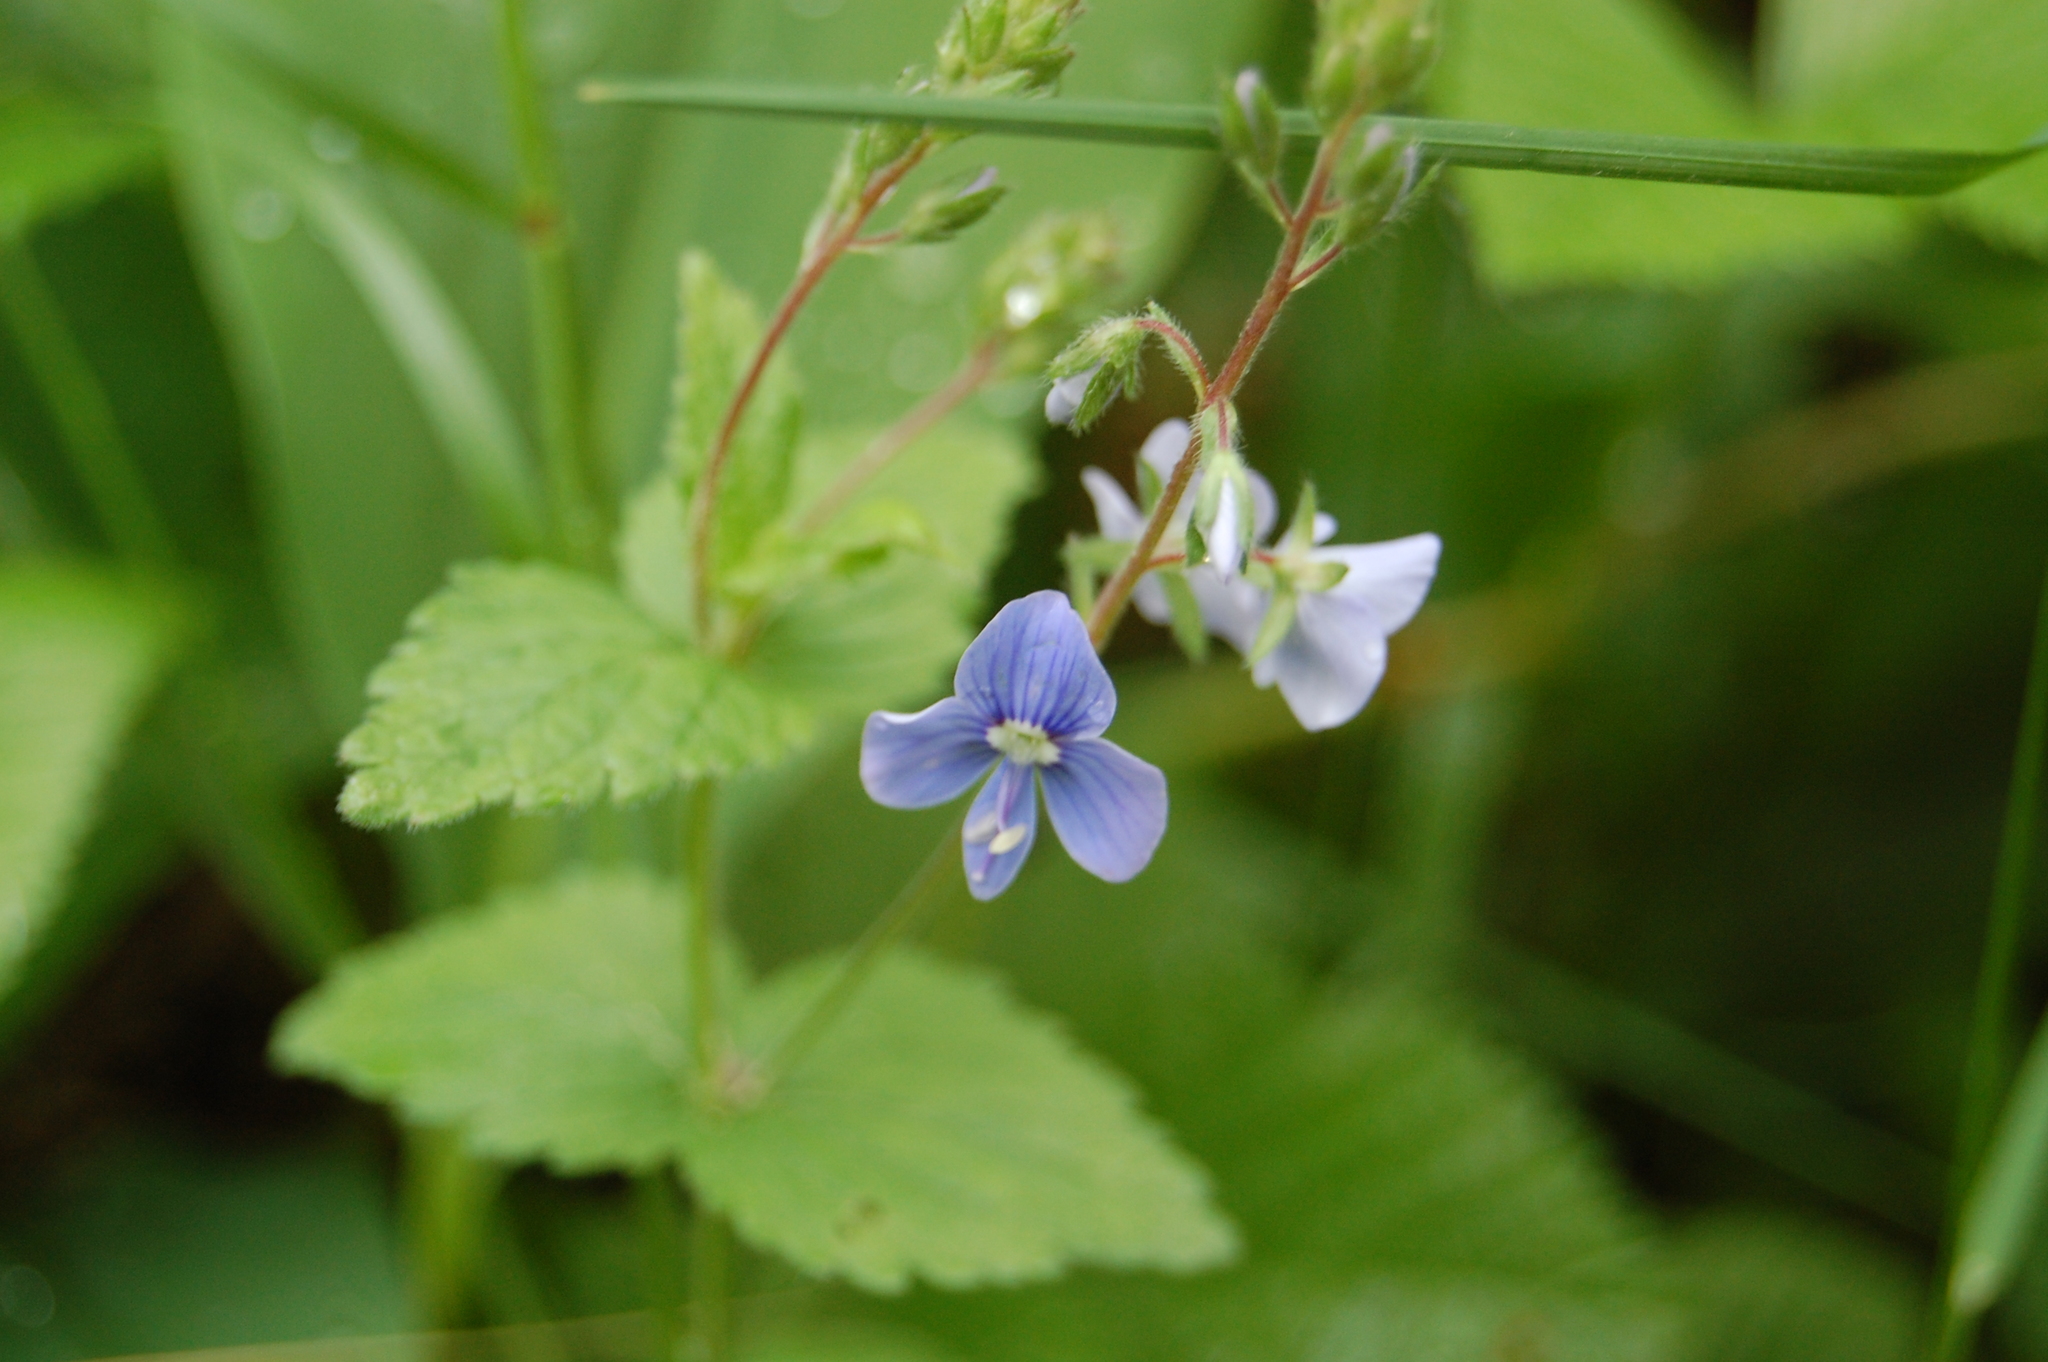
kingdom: Plantae
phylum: Tracheophyta
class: Magnoliopsida
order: Lamiales
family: Plantaginaceae
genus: Veronica
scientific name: Veronica chamaedrys
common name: Germander speedwell
